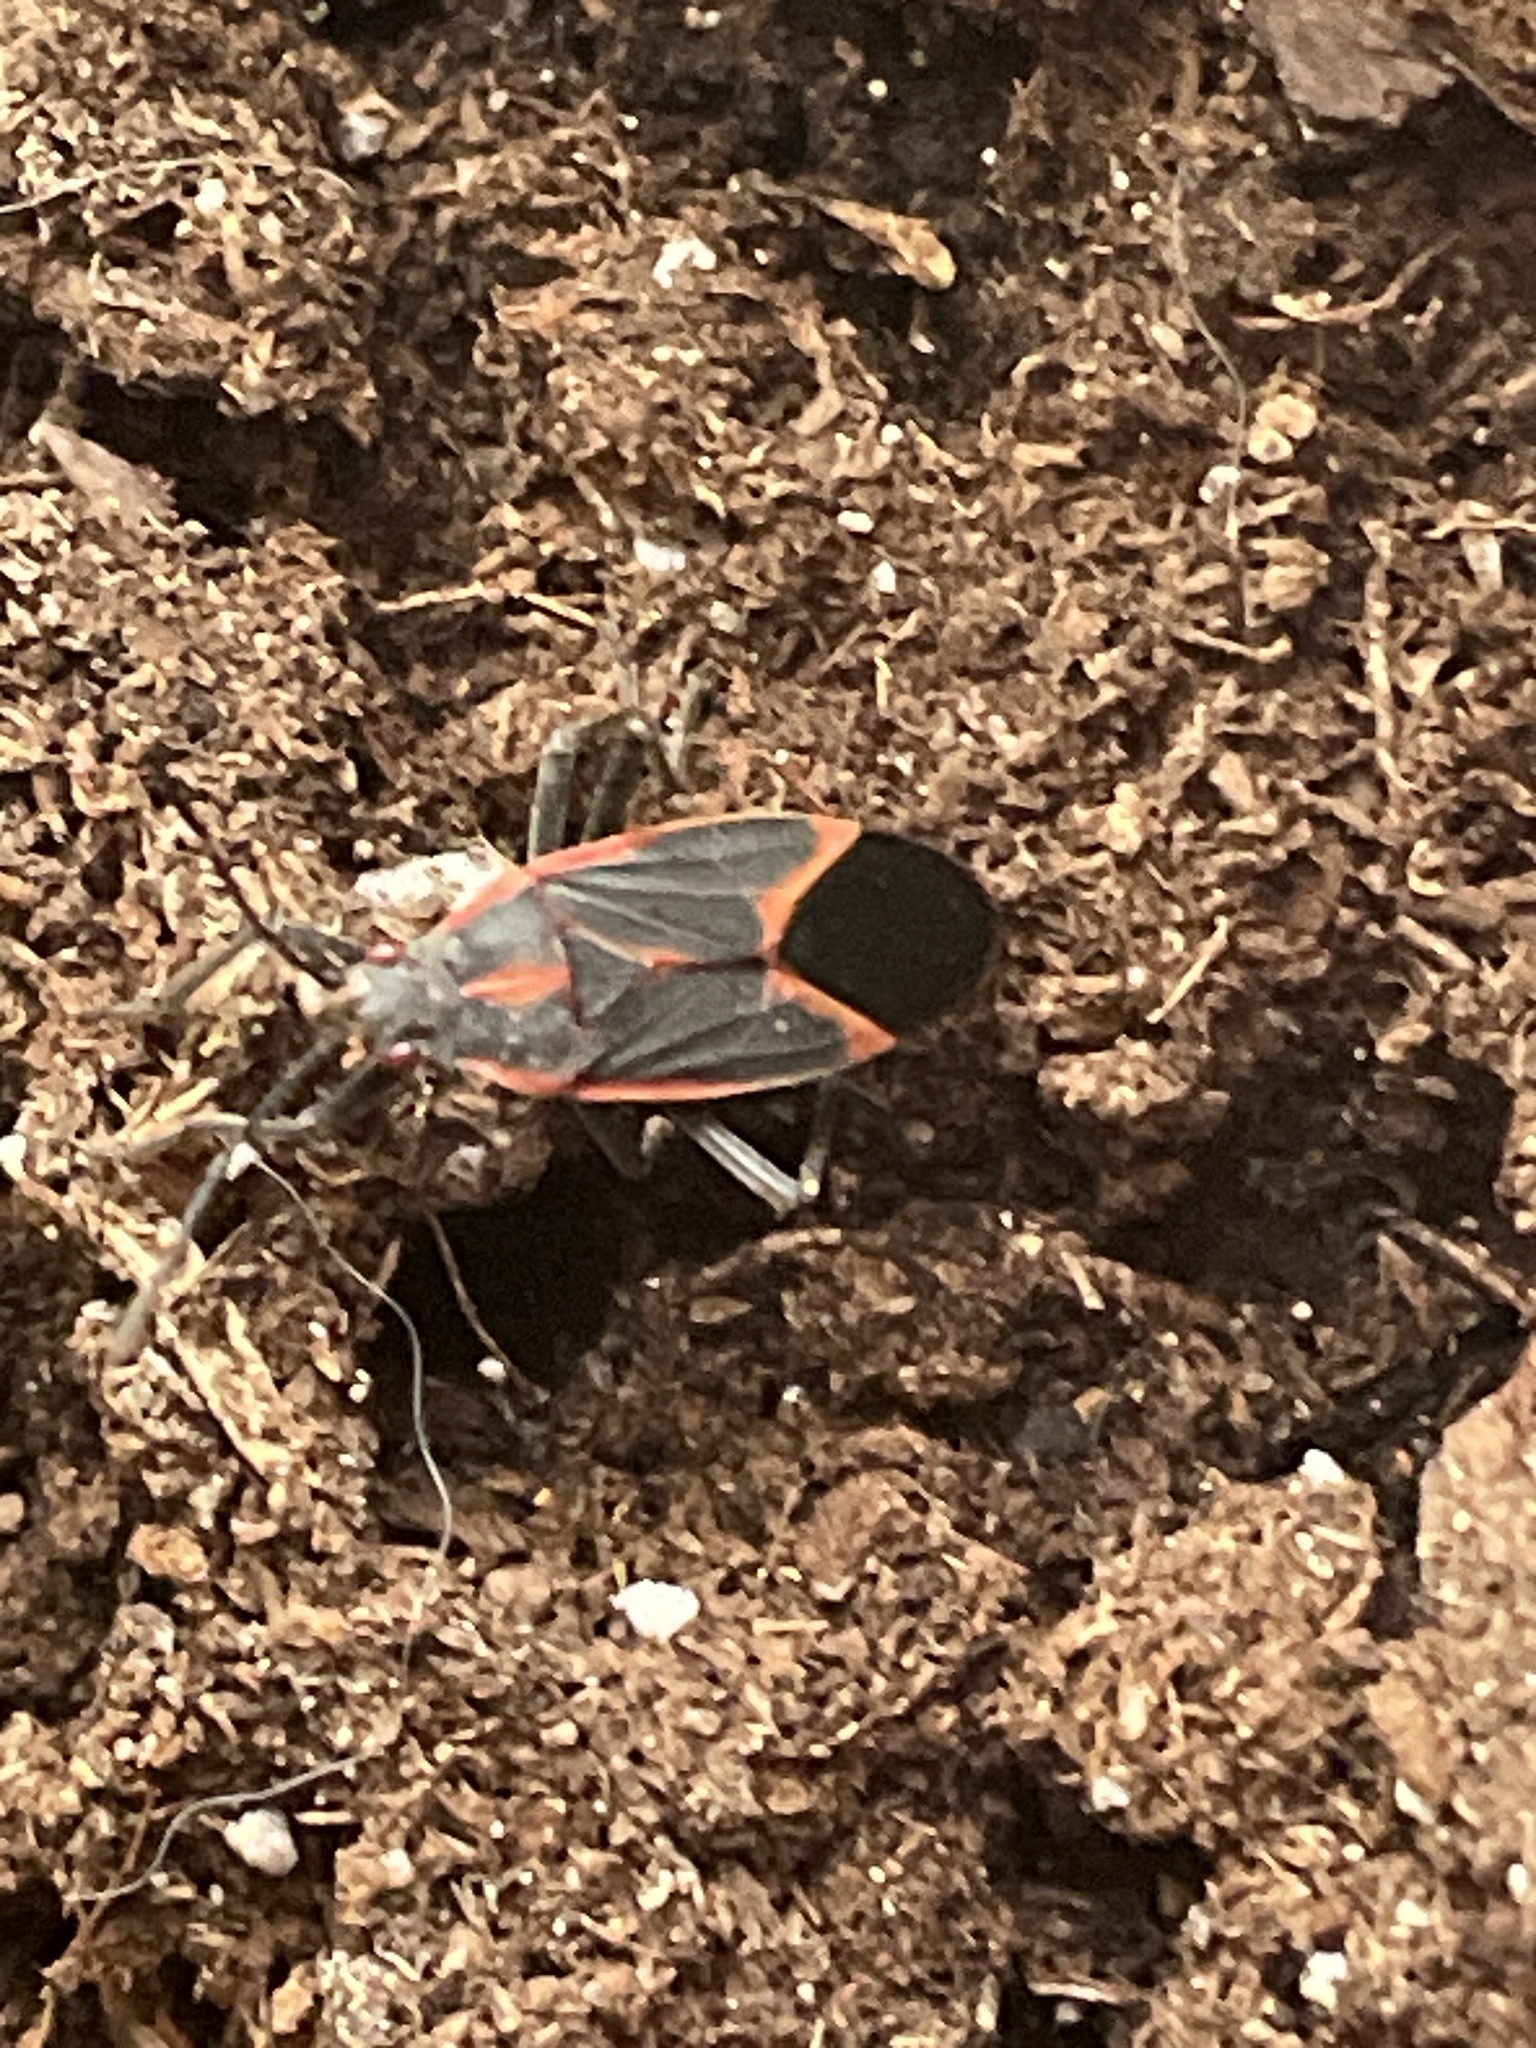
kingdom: Animalia
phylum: Arthropoda
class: Insecta
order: Hemiptera
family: Rhopalidae
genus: Boisea
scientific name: Boisea trivittata
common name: Boxelder bug
